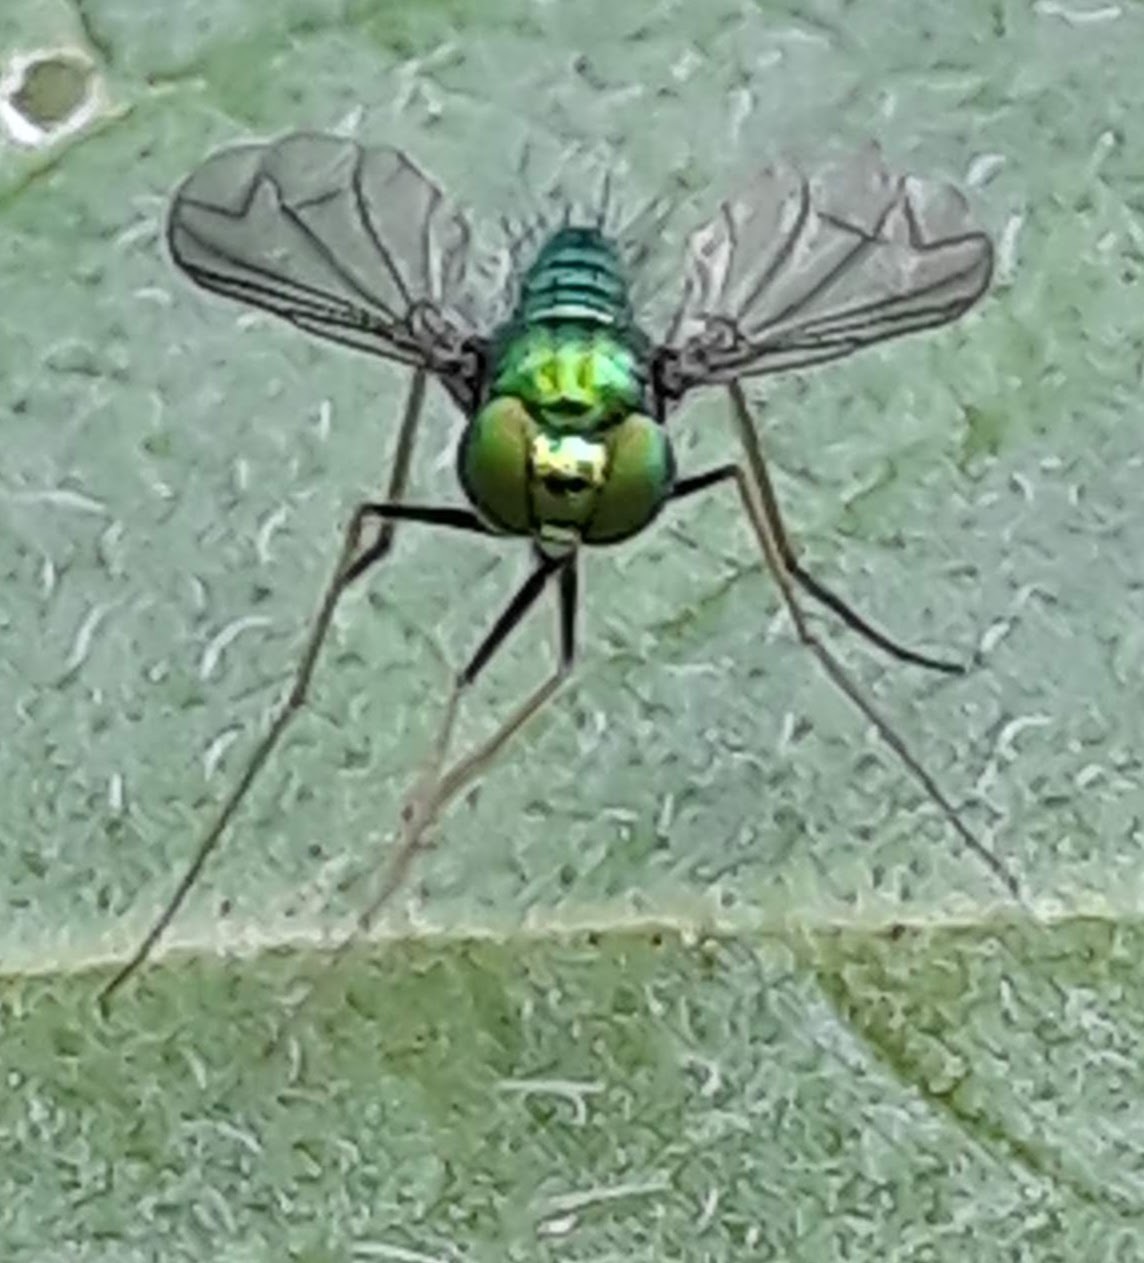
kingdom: Animalia
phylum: Arthropoda
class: Insecta
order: Diptera
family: Dolichopodidae
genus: Condylostylus
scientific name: Condylostylus comatus
